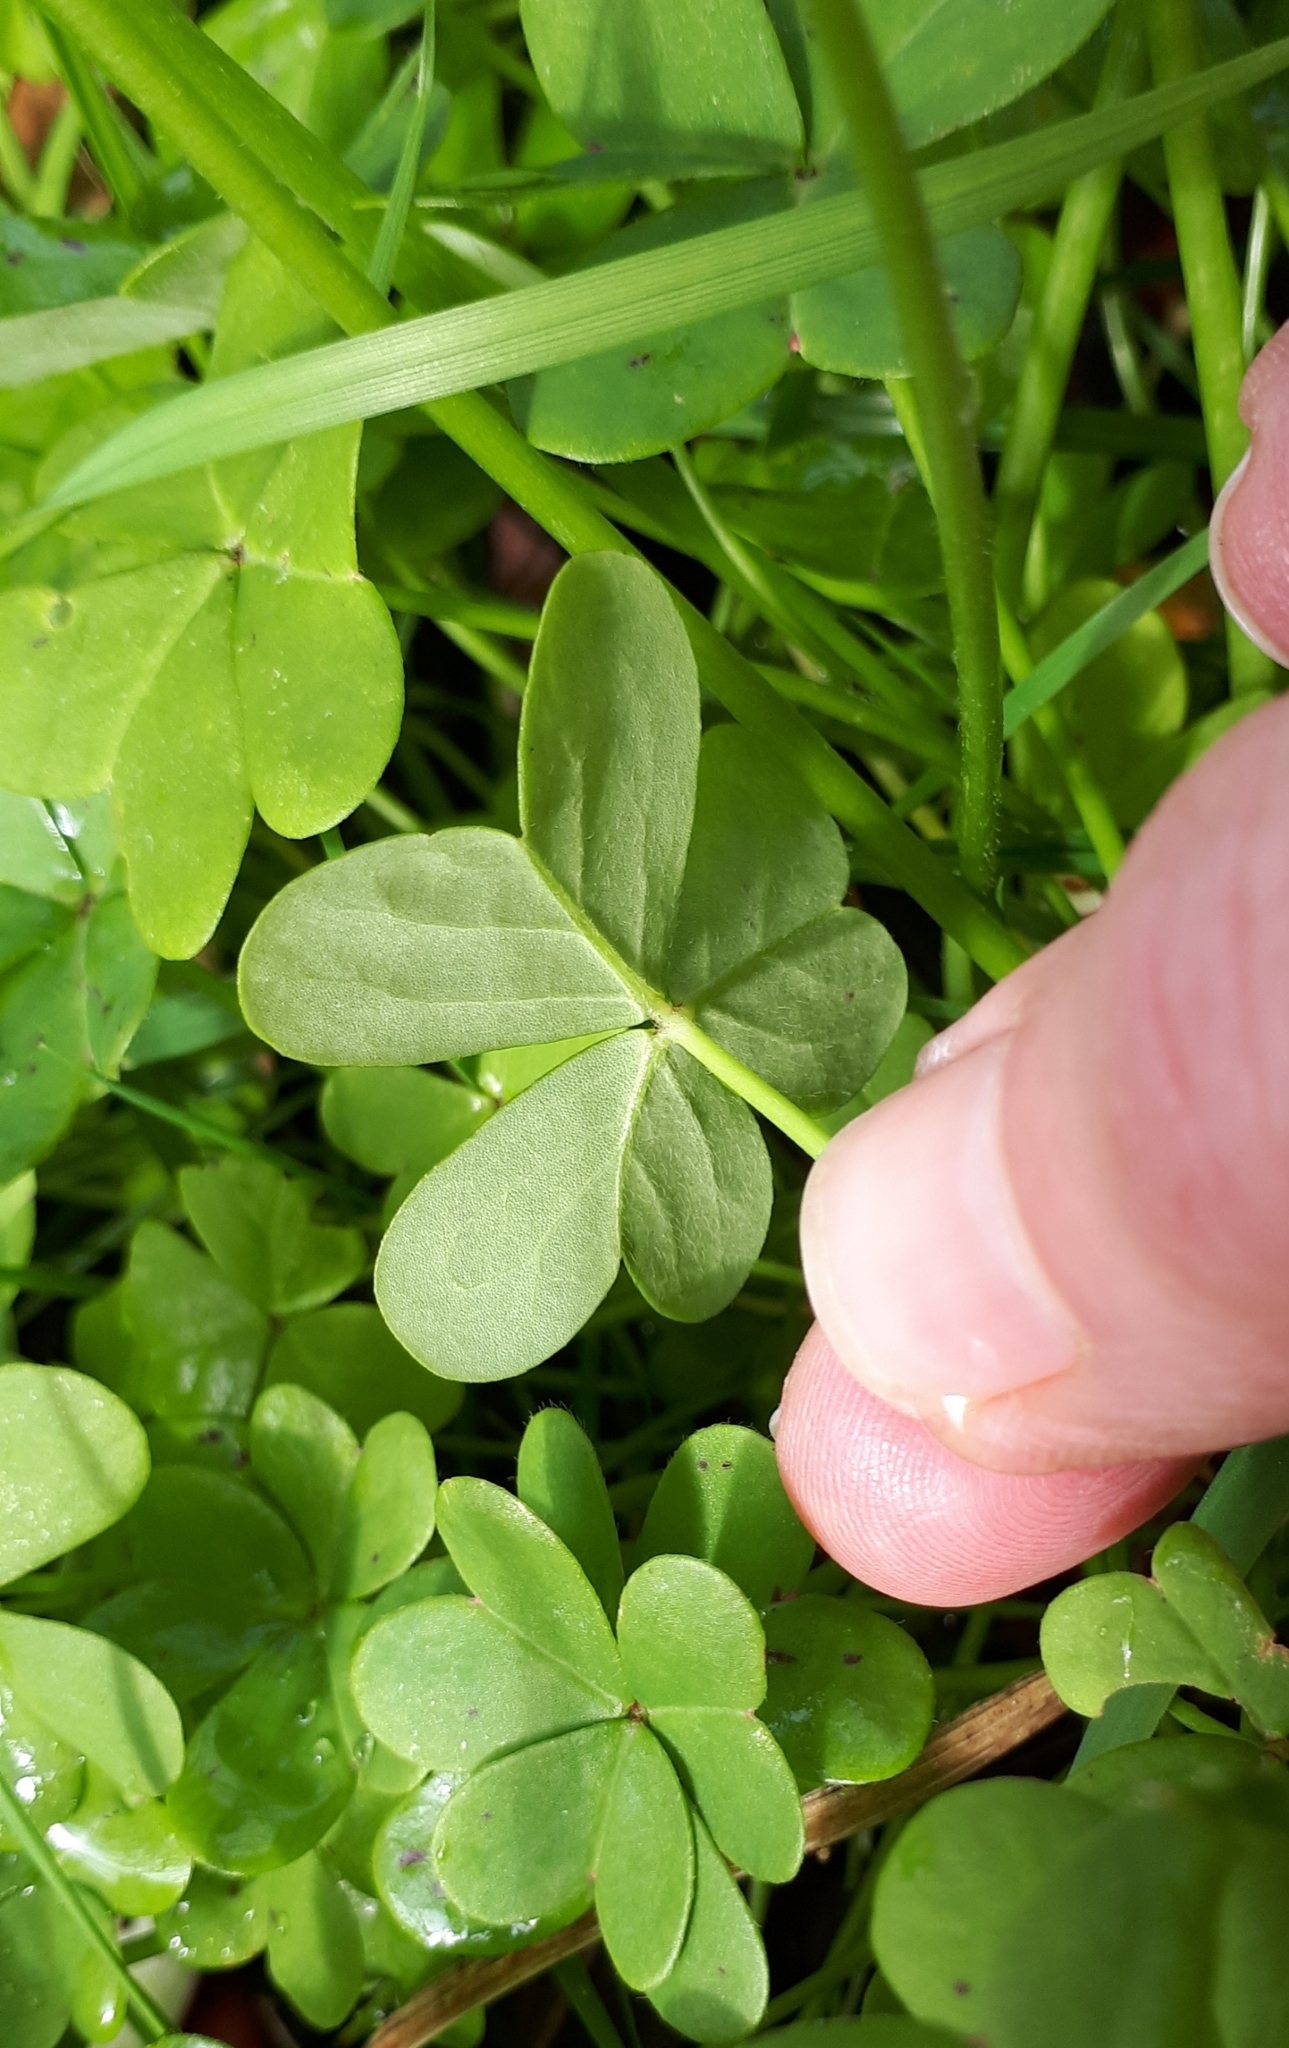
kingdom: Plantae
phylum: Tracheophyta
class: Magnoliopsida
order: Oxalidales
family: Oxalidaceae
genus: Oxalis
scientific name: Oxalis pes-caprae
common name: Bermuda-buttercup
